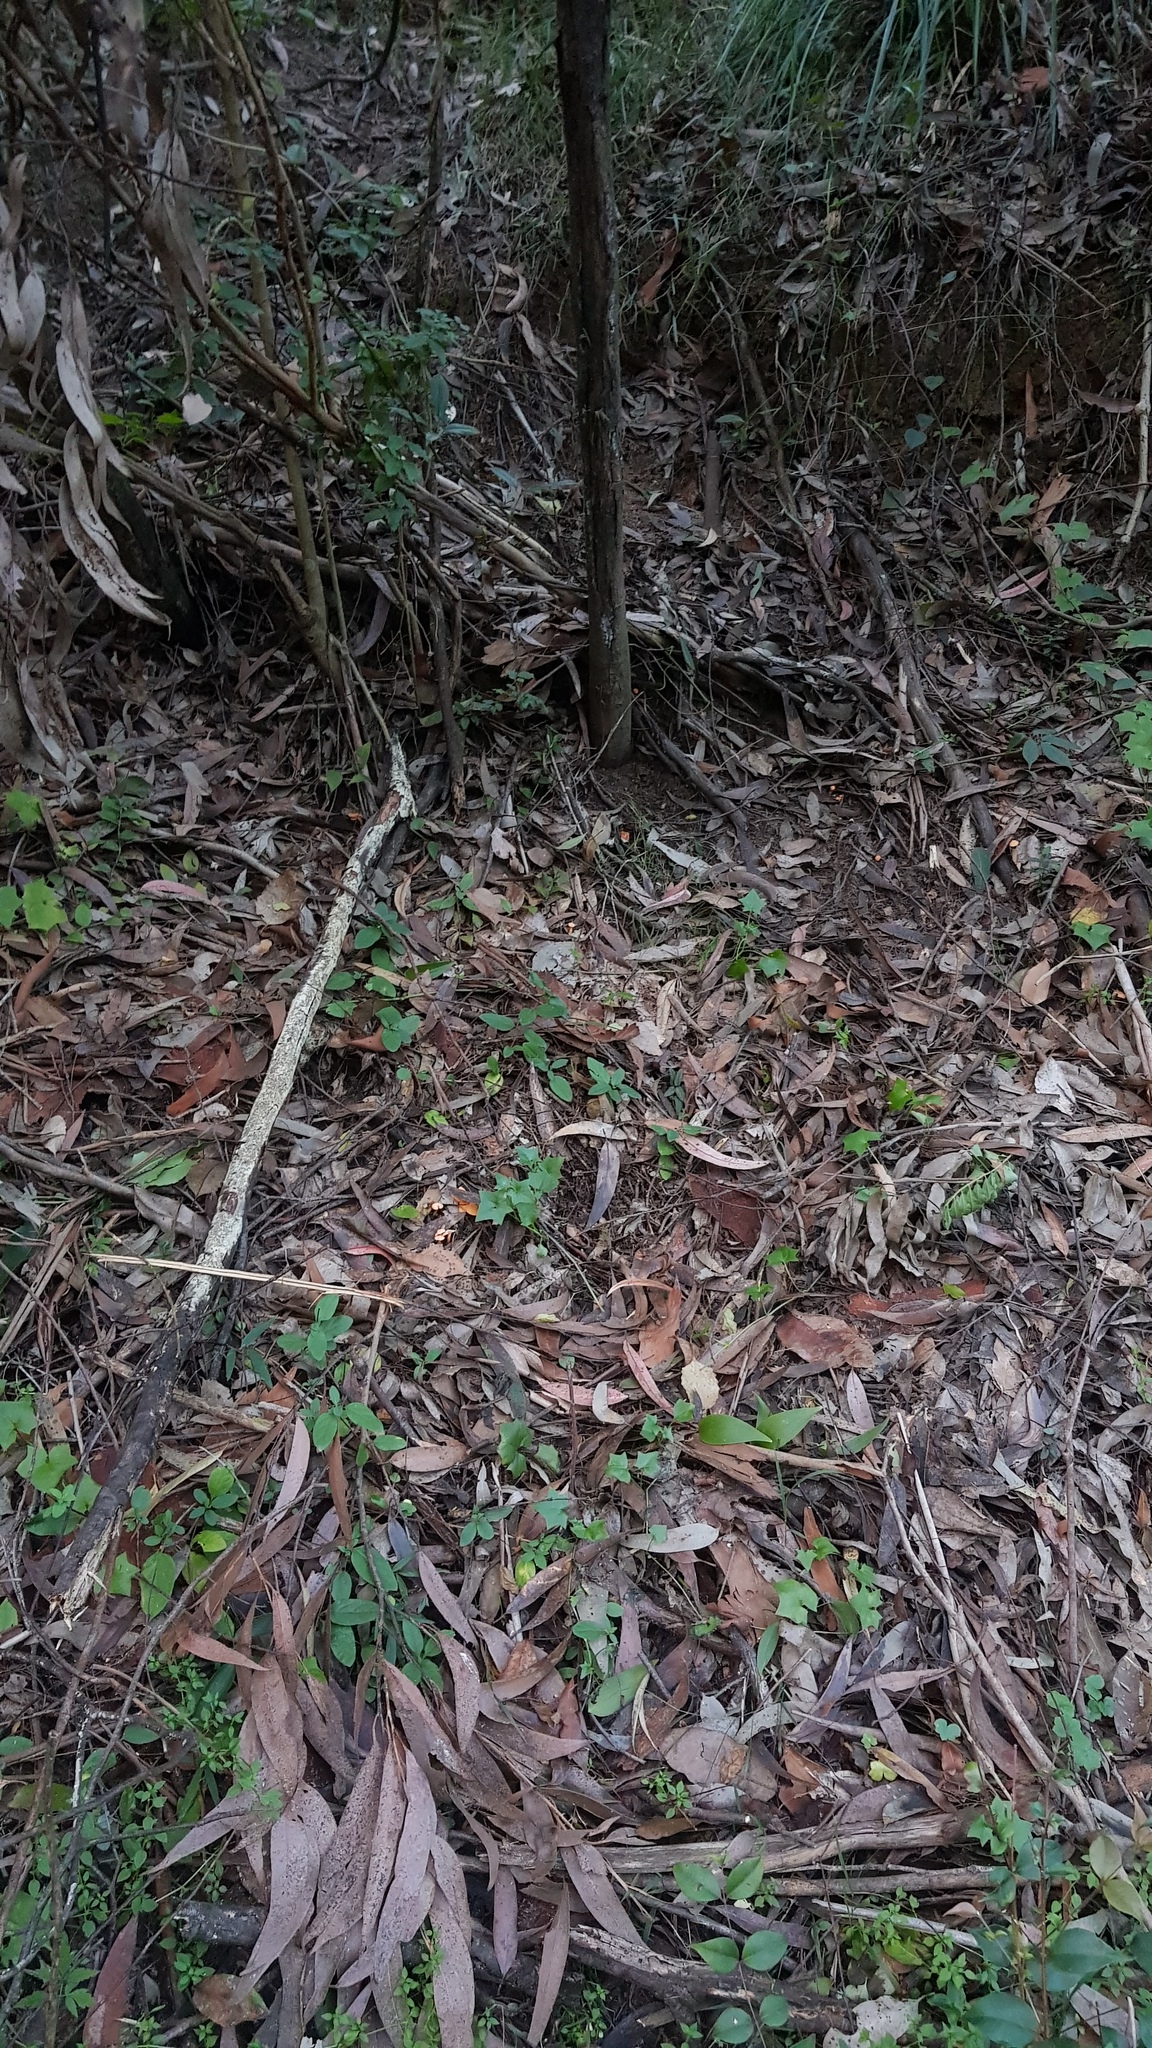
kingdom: Fungi
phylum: Basidiomycota
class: Agaricomycetes
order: Cantharellales
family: Hydnaceae
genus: Cantharellus
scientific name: Cantharellus
